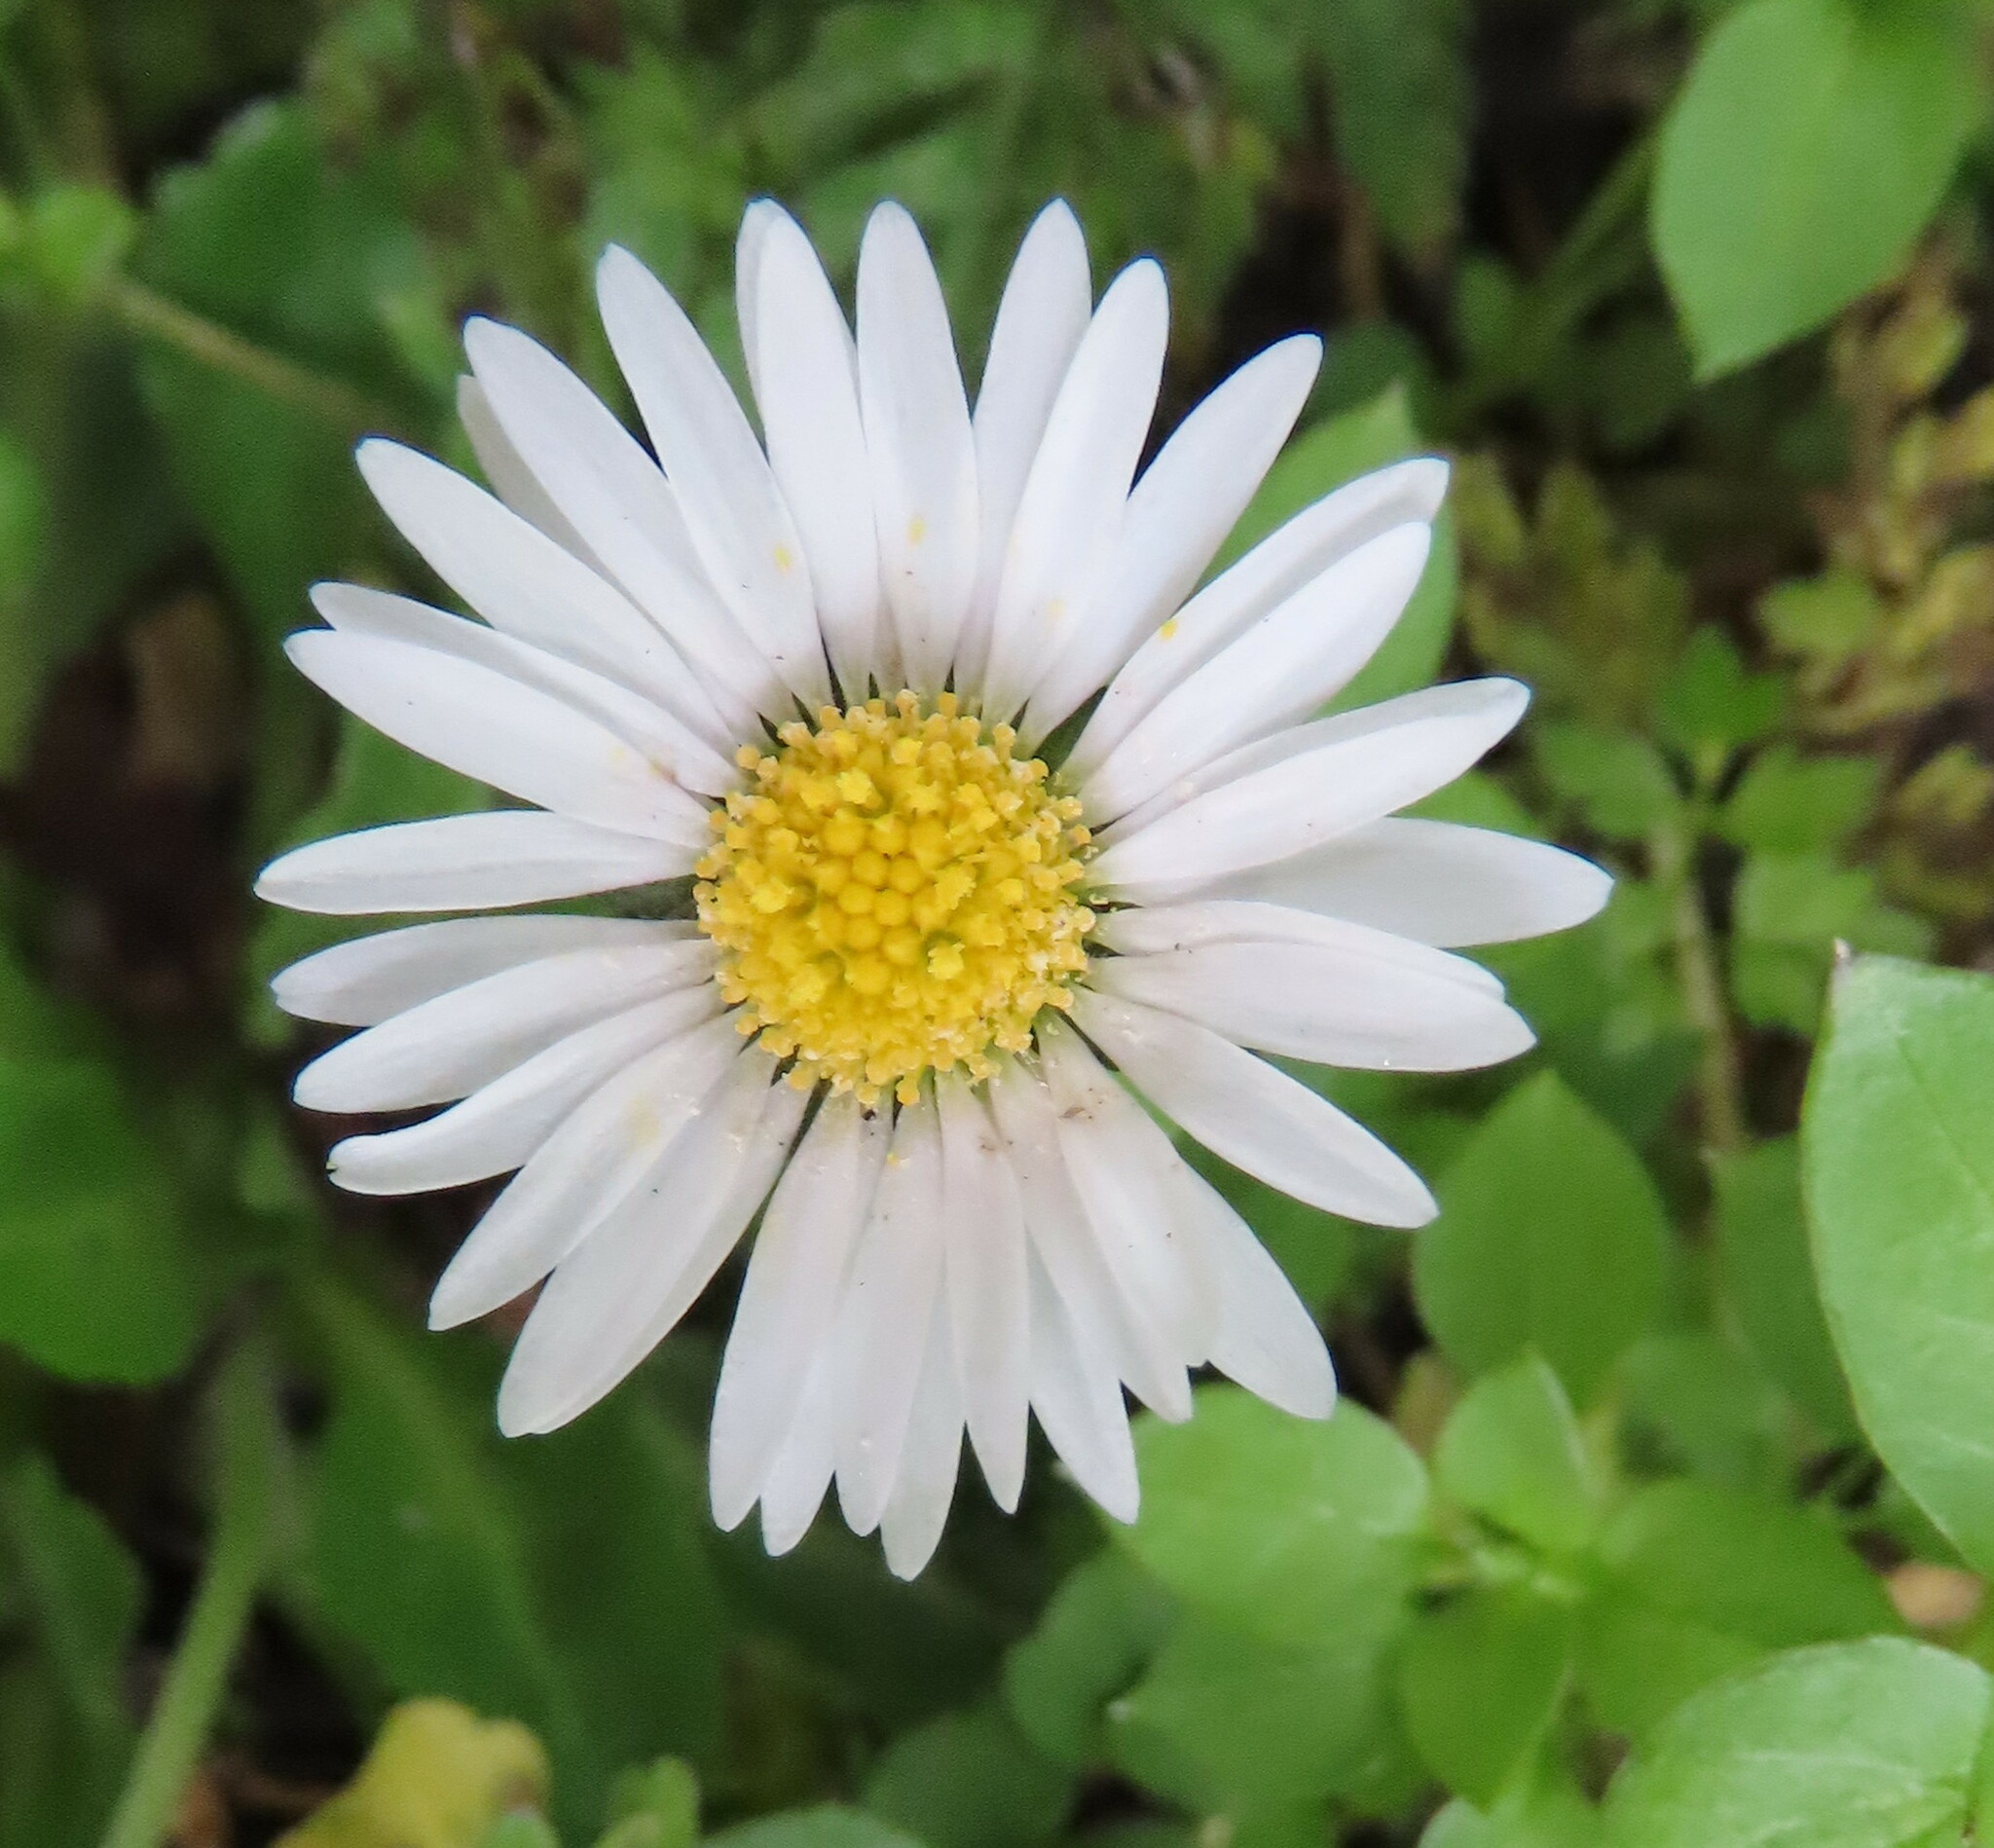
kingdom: Plantae
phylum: Tracheophyta
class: Magnoliopsida
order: Asterales
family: Asteraceae
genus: Bellis
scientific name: Bellis perennis
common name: Lawndaisy
